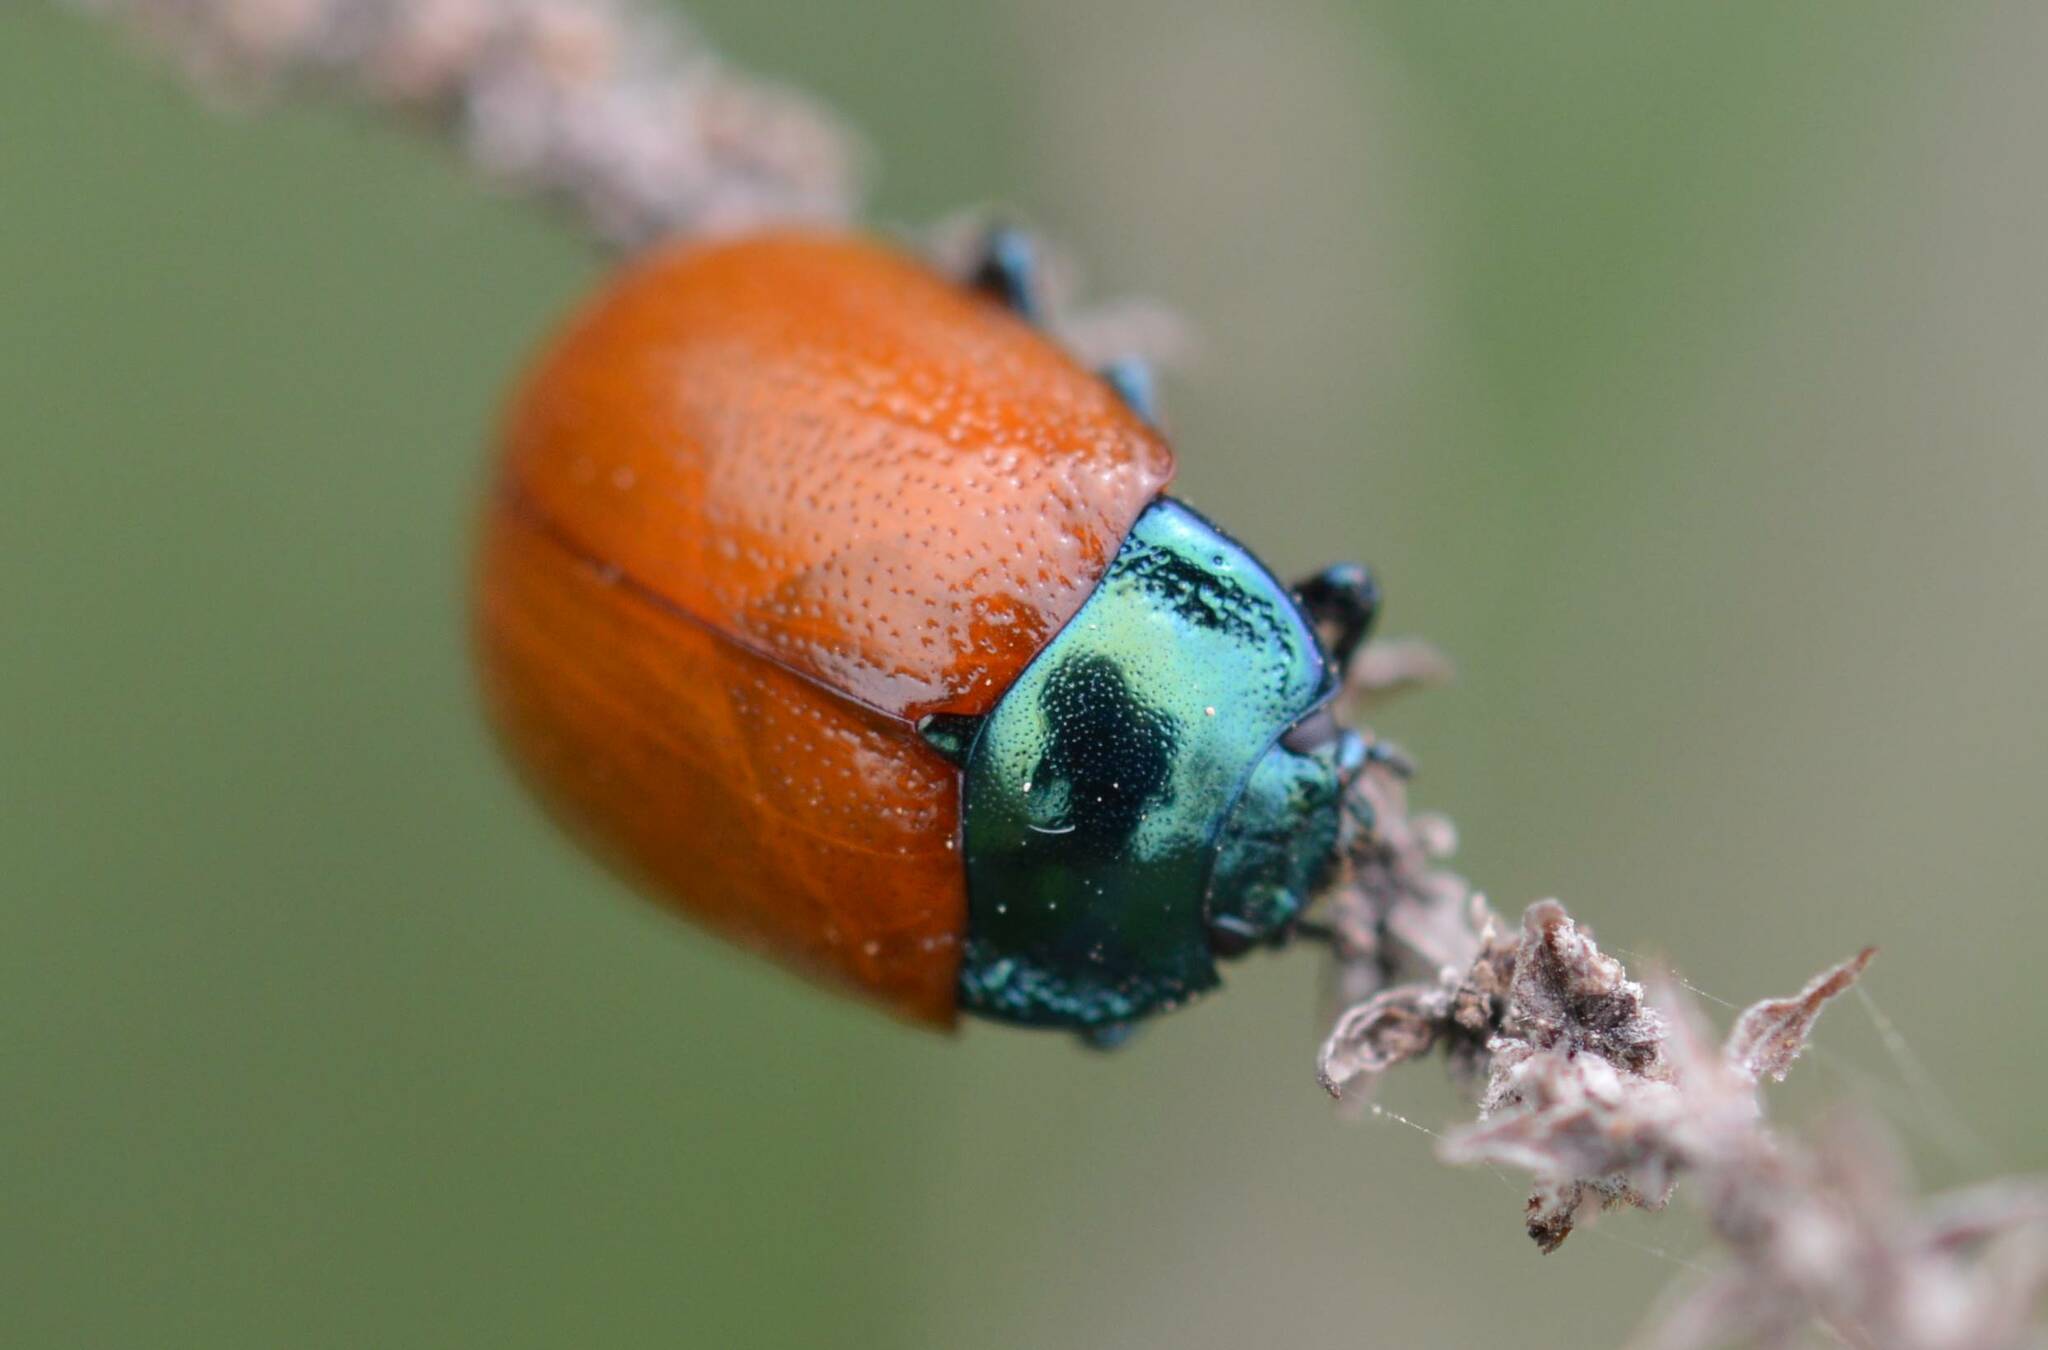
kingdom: Animalia
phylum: Arthropoda
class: Insecta
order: Coleoptera
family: Chrysomelidae
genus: Chrysolina
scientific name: Chrysolina grossa
